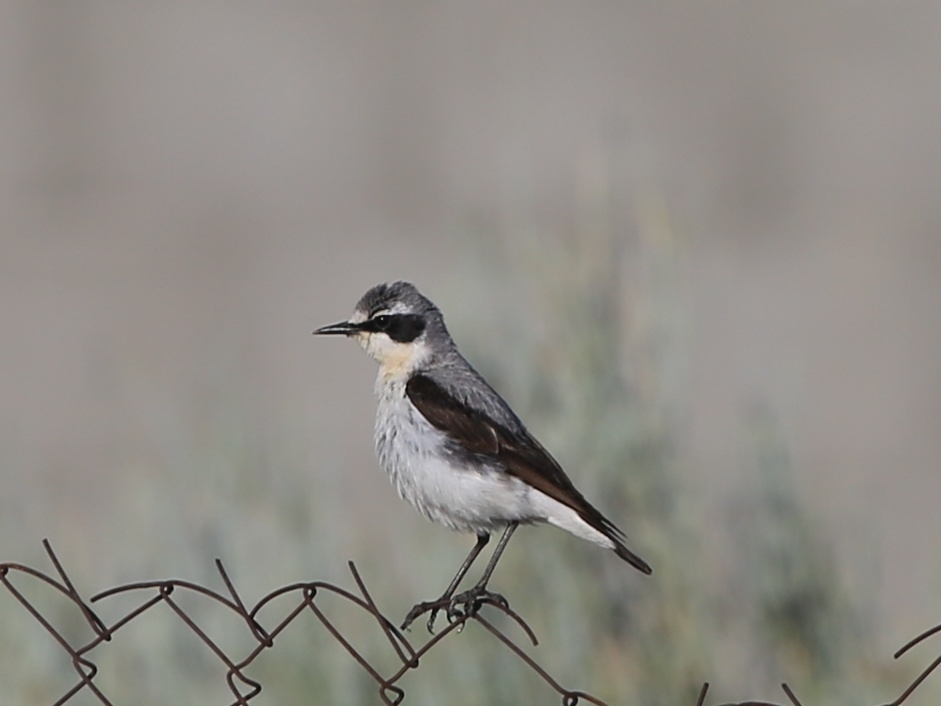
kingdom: Animalia
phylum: Chordata
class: Aves
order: Passeriformes
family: Muscicapidae
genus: Oenanthe
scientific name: Oenanthe oenanthe
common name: Northern wheatear
